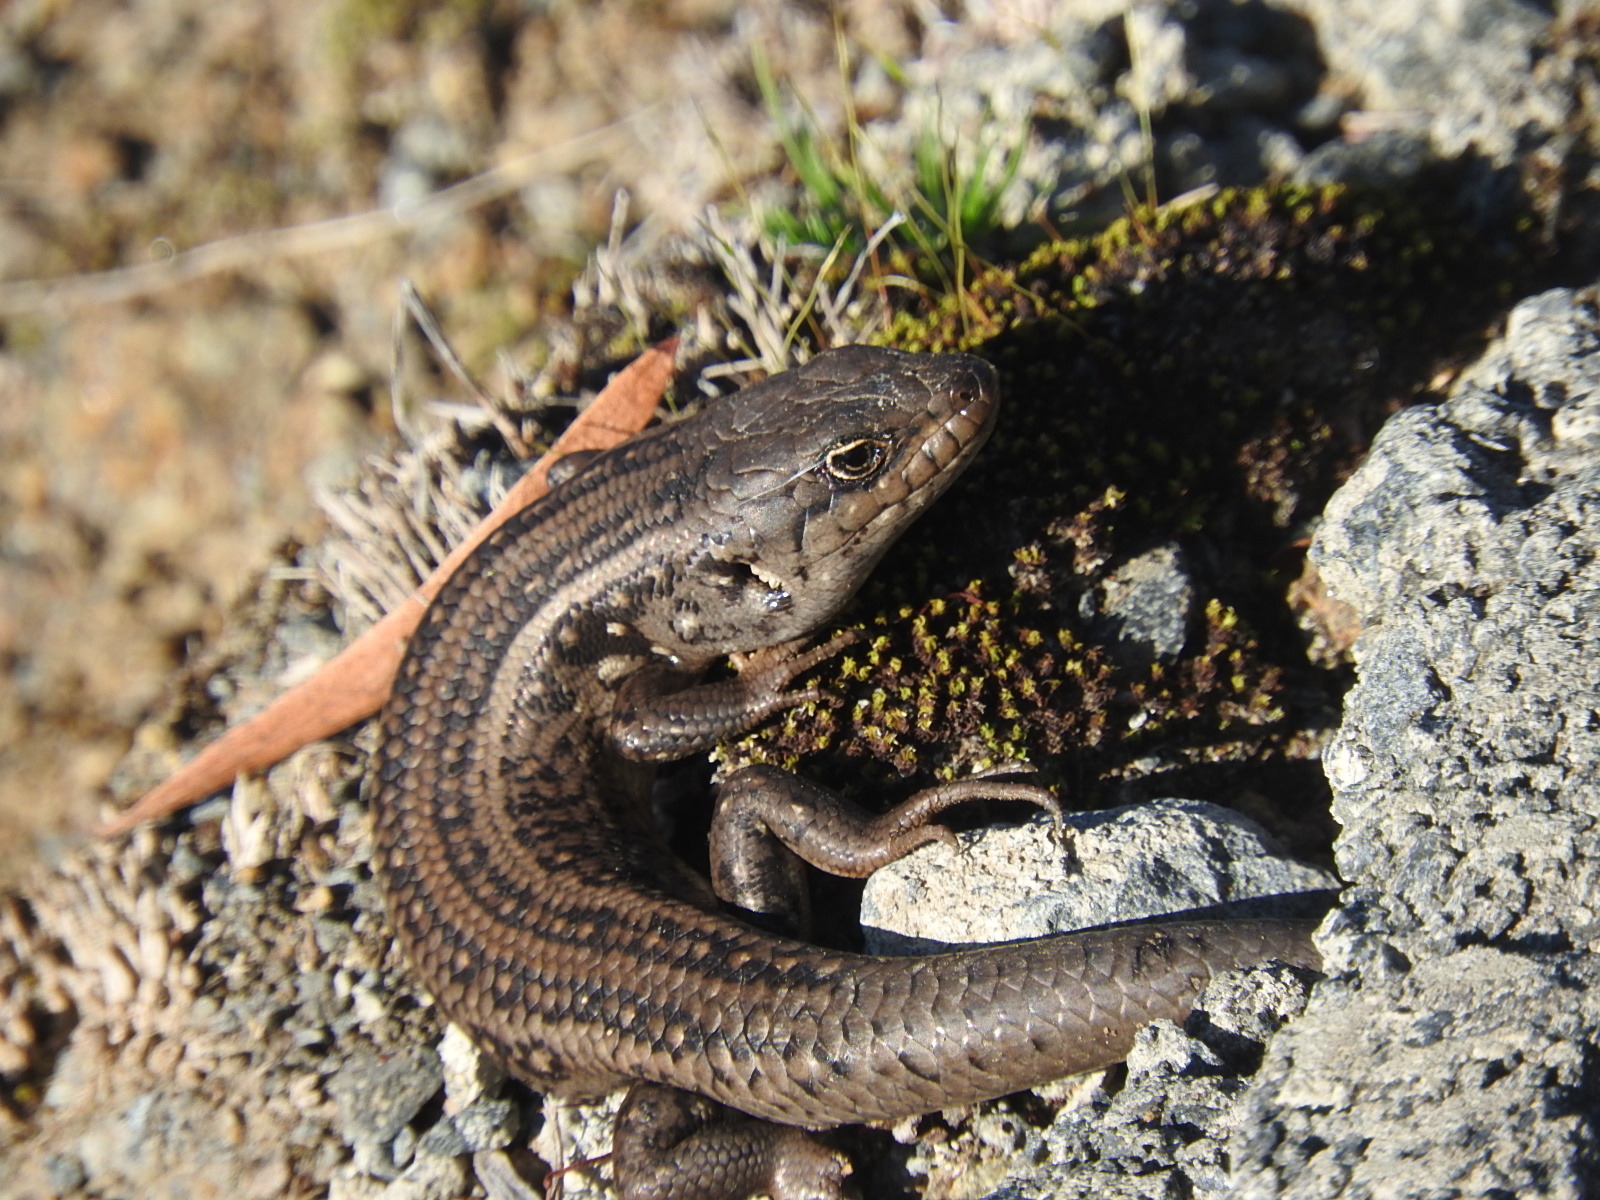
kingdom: Animalia
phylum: Chordata
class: Squamata
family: Scincidae
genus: Liopholis
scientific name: Liopholis whitii
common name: White's rock-skink
